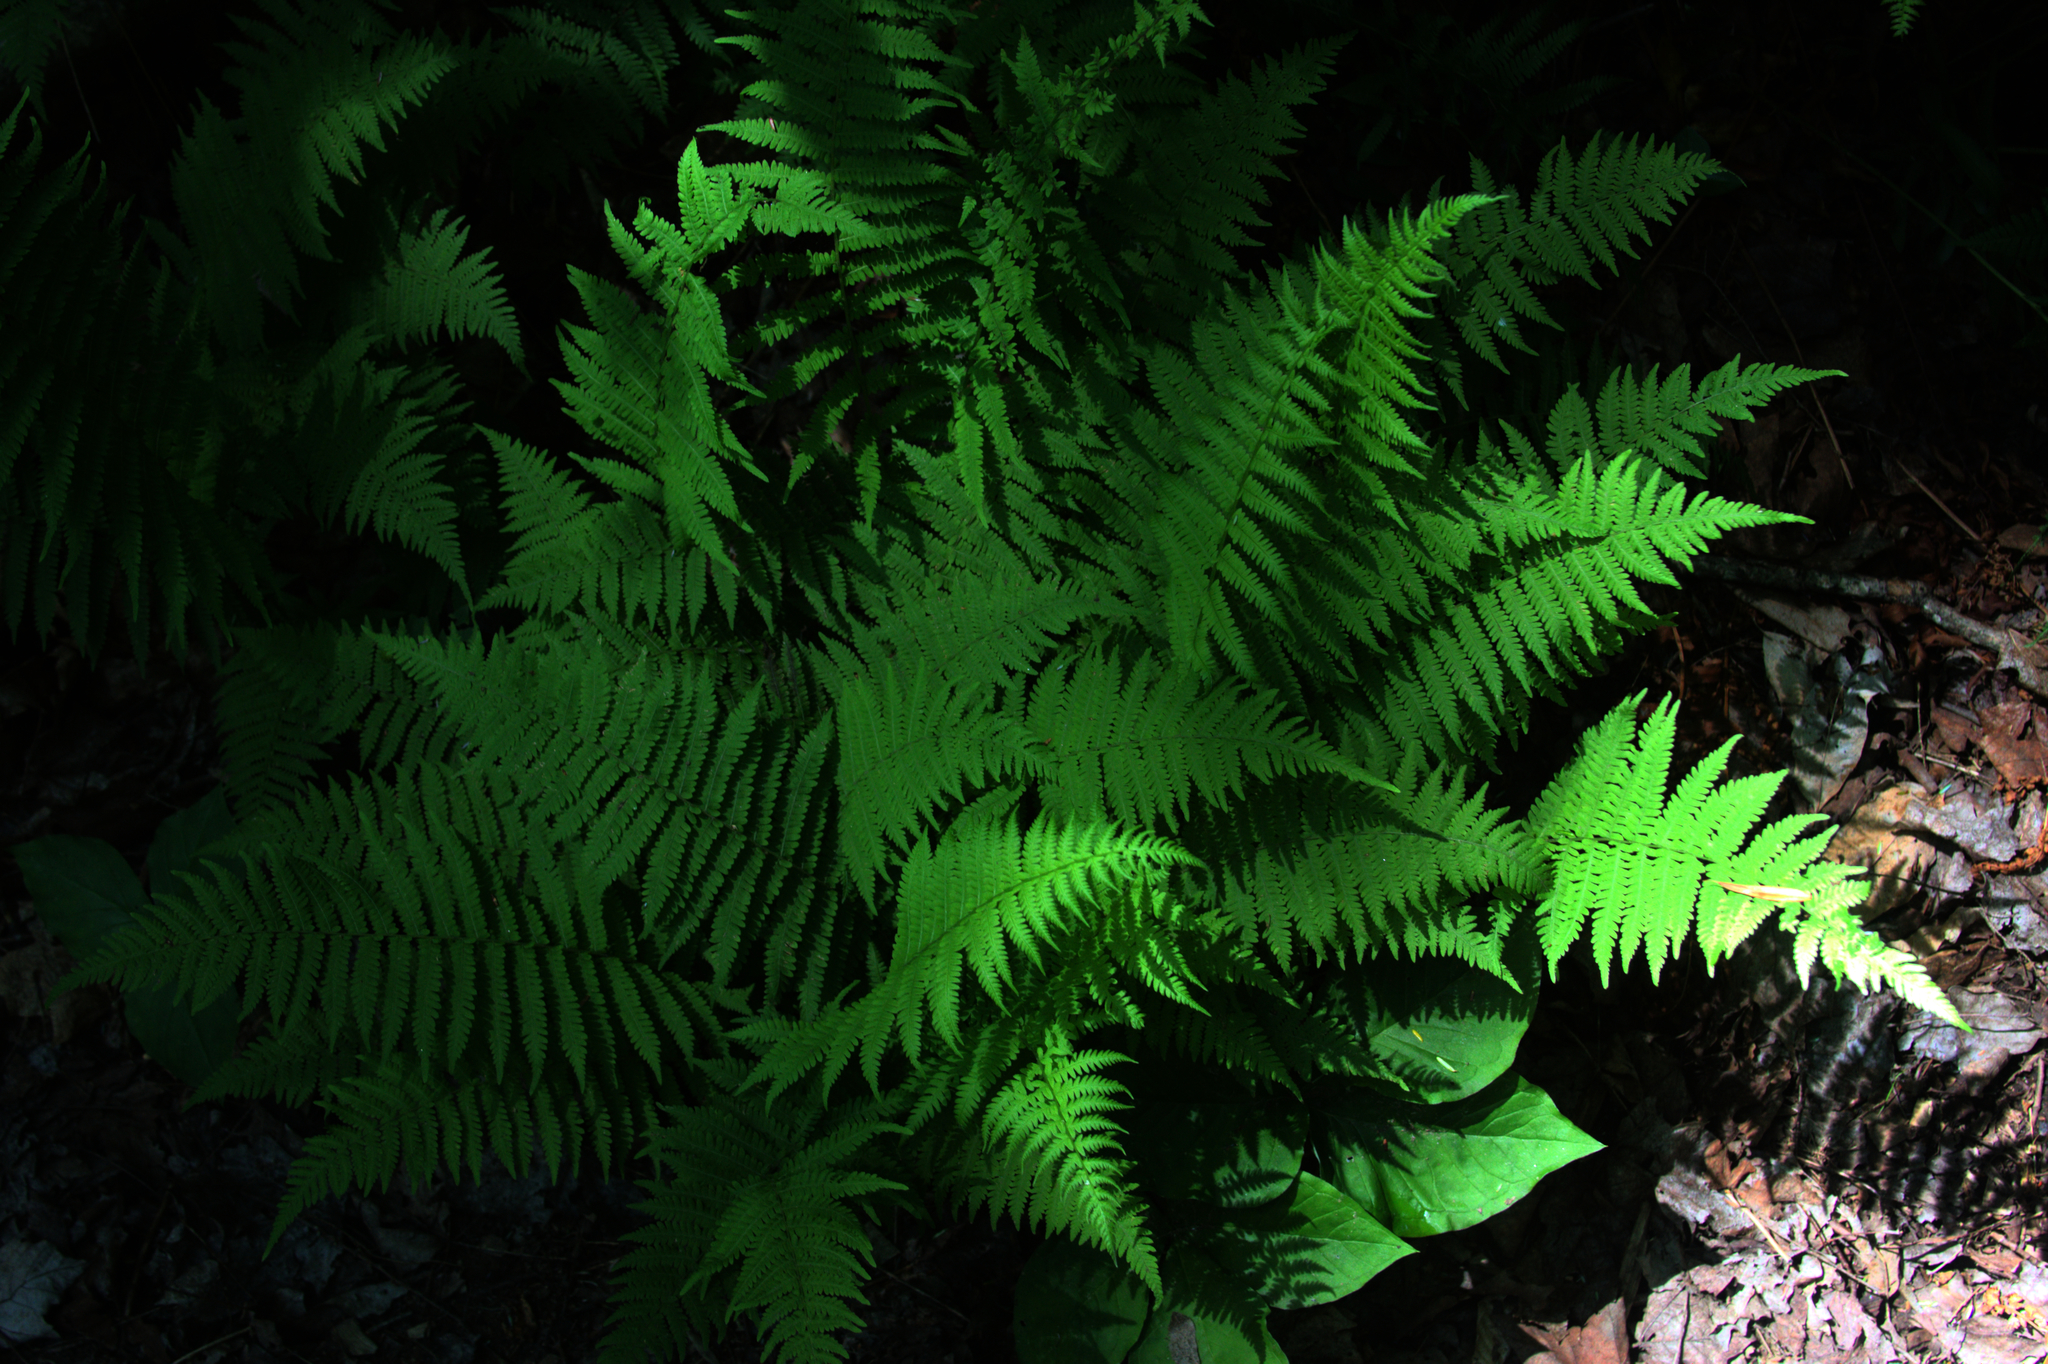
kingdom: Plantae
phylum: Tracheophyta
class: Polypodiopsida
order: Polypodiales
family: Thelypteridaceae
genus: Amauropelta
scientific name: Amauropelta noveboracensis
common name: New york fern
